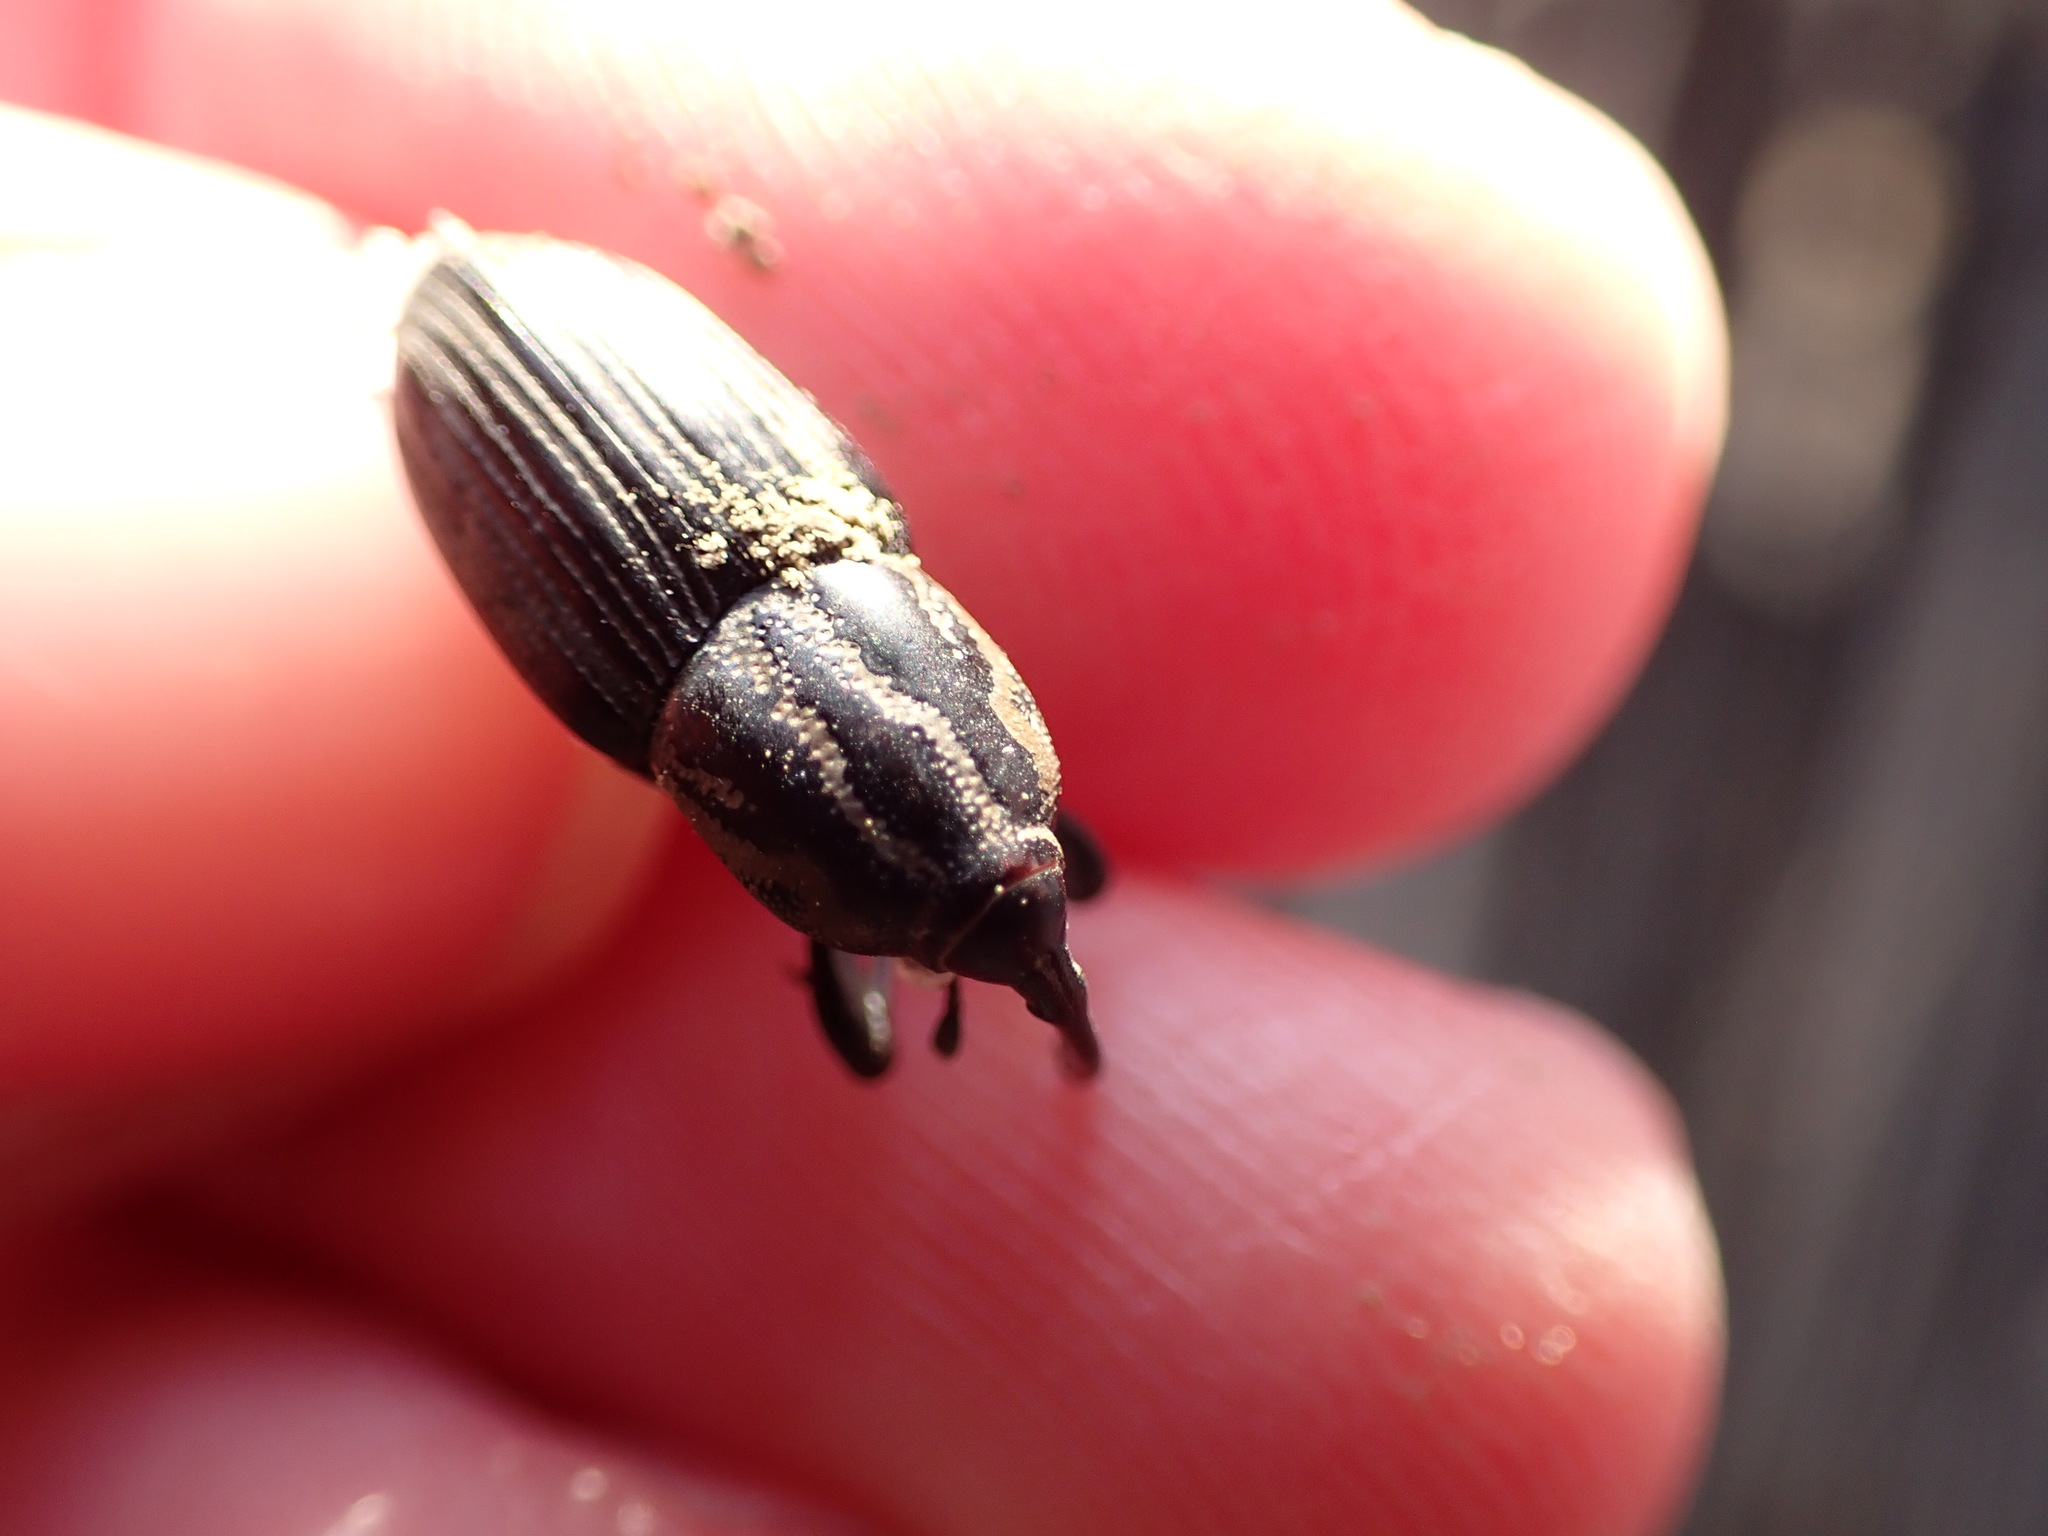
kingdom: Animalia
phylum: Arthropoda
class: Insecta
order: Coleoptera
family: Dryophthoridae
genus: Sphenophorus
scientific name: Sphenophorus pertinax
